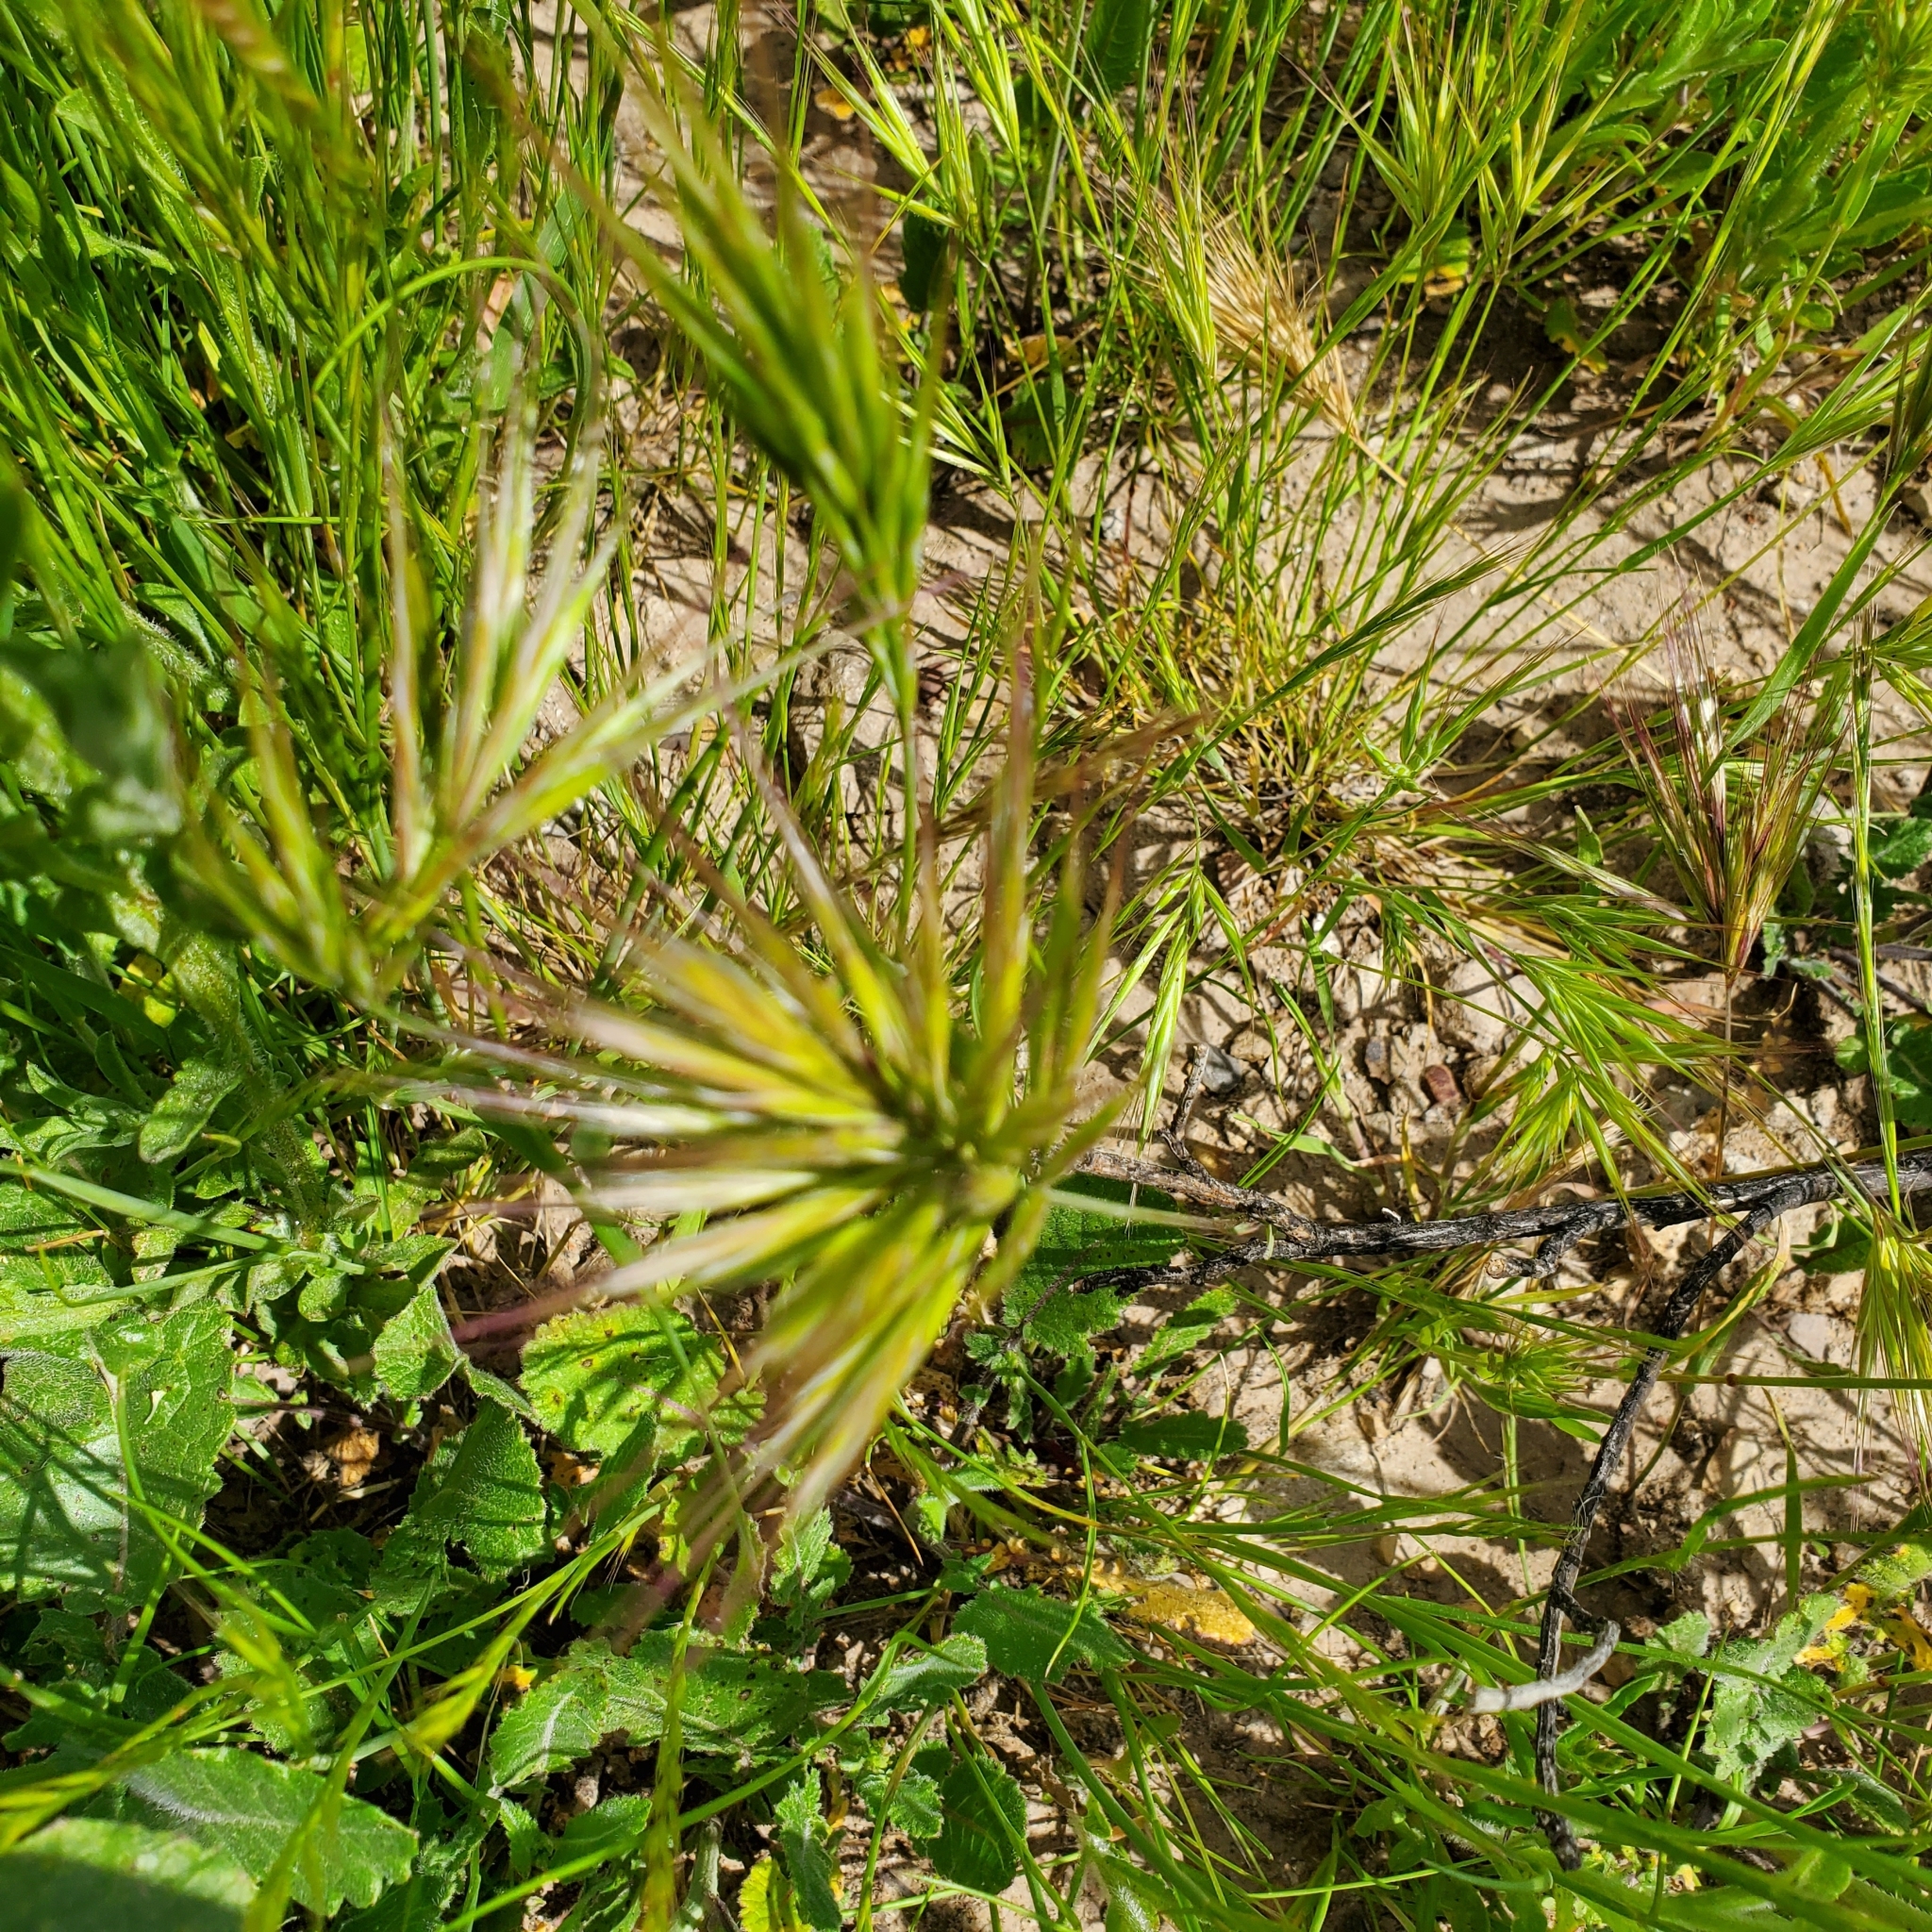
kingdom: Plantae
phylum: Tracheophyta
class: Liliopsida
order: Poales
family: Poaceae
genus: Bromus
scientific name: Bromus madritensis
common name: Compact brome
